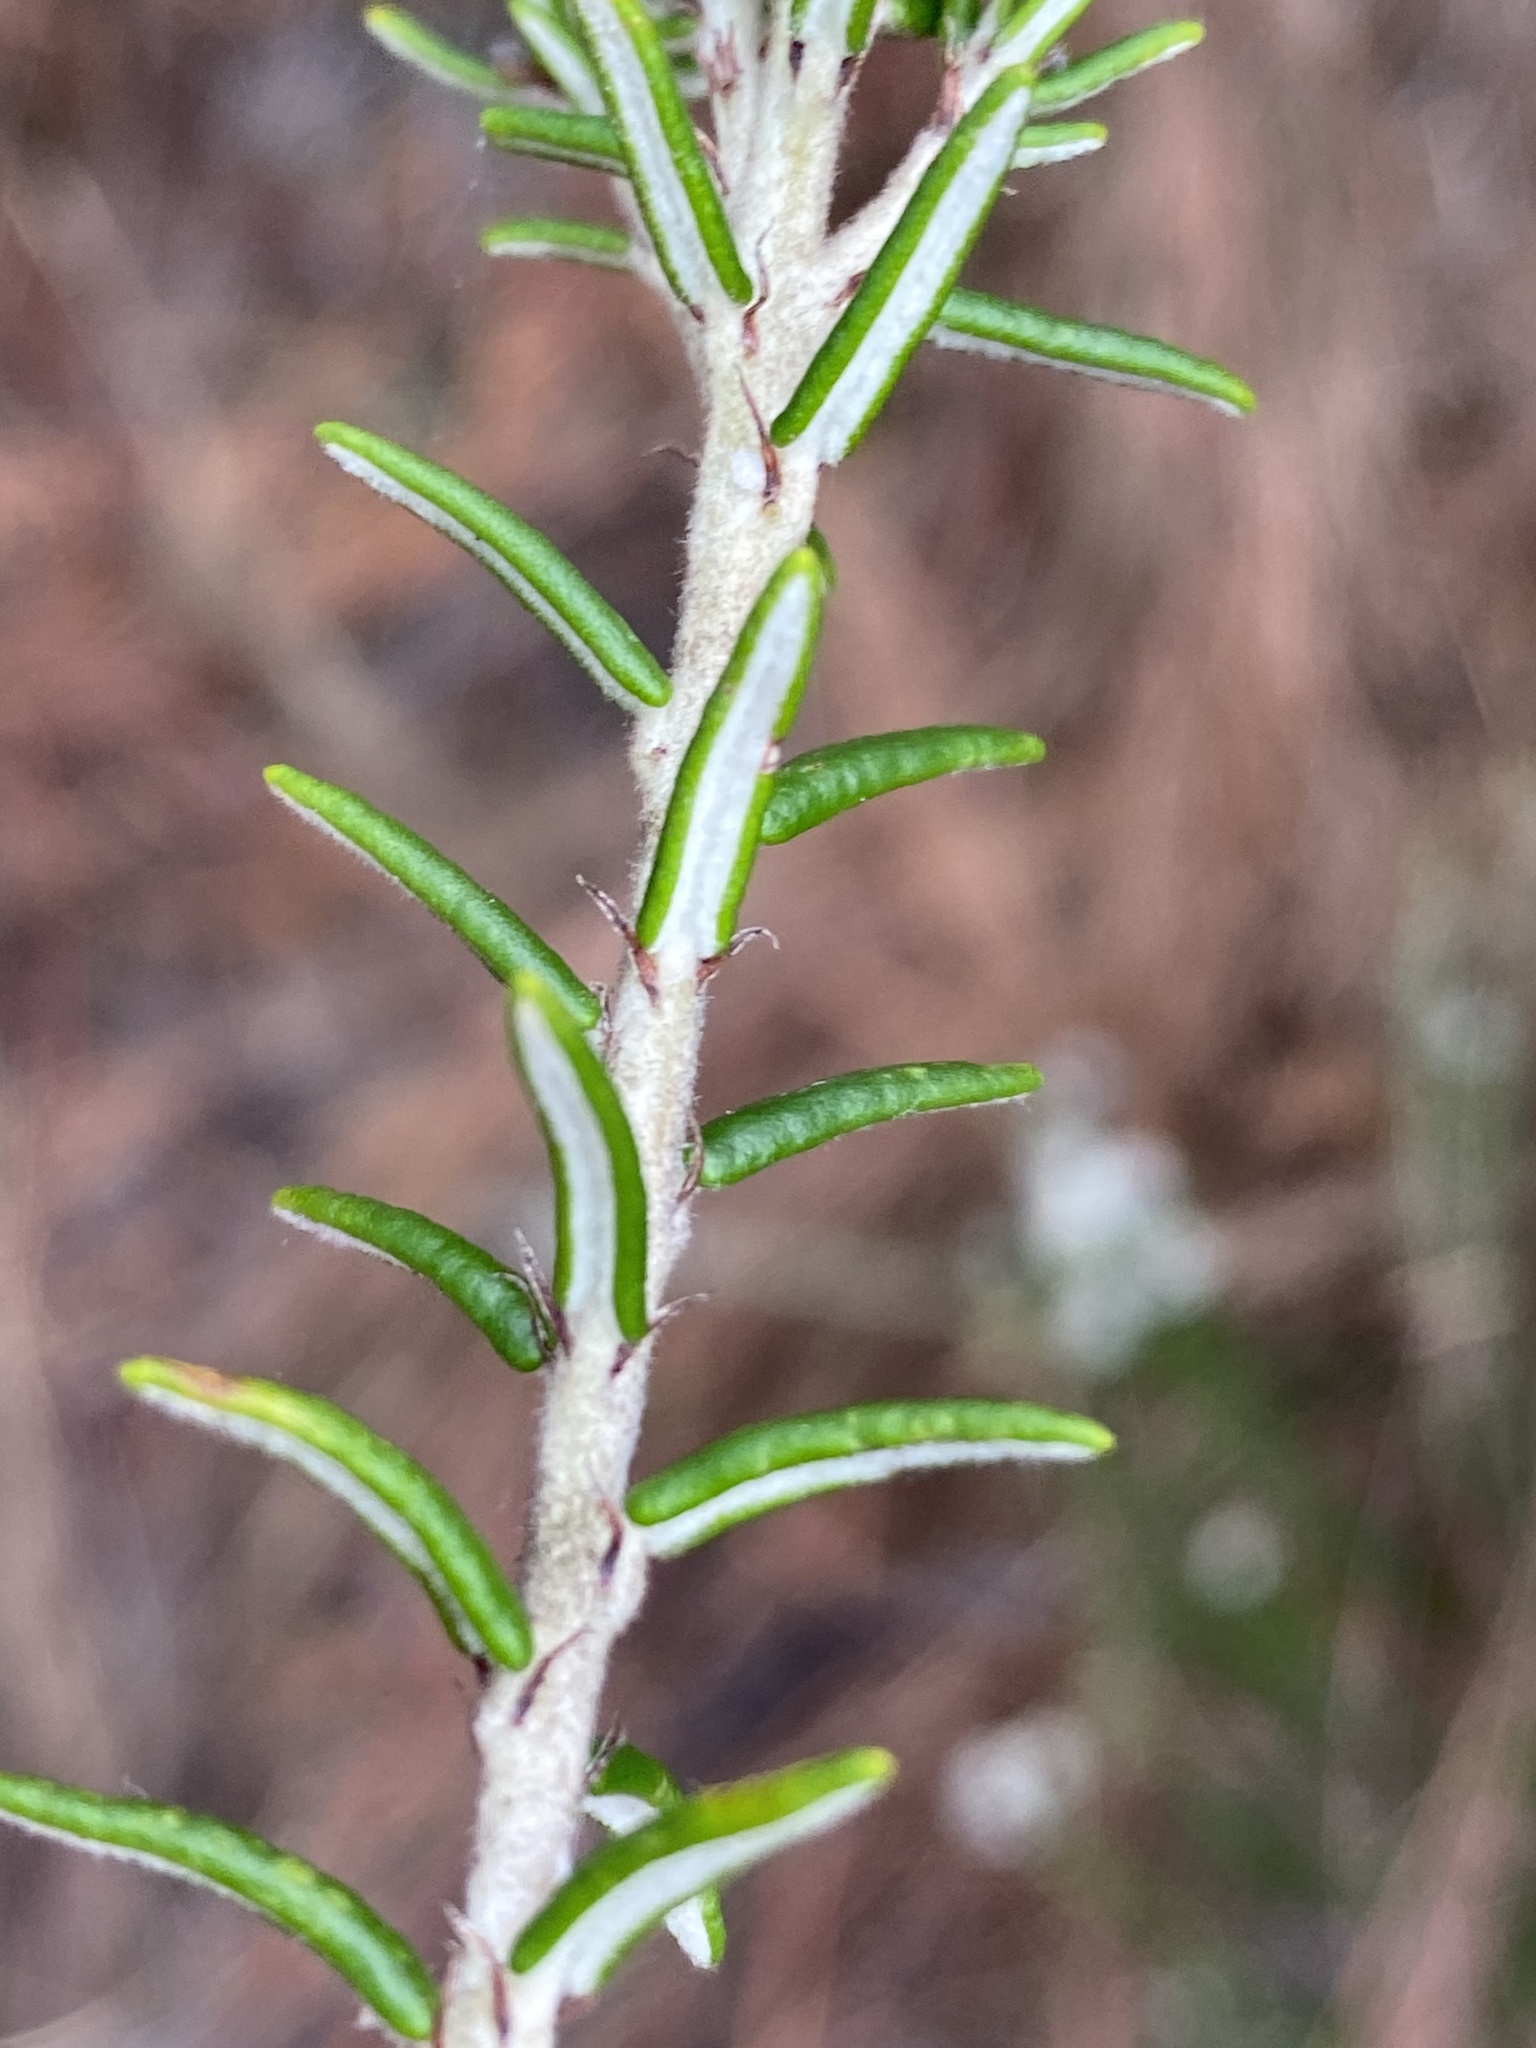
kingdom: Plantae
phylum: Tracheophyta
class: Magnoliopsida
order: Rosales
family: Rhamnaceae
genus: Trichocephalus
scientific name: Trichocephalus stipularis
